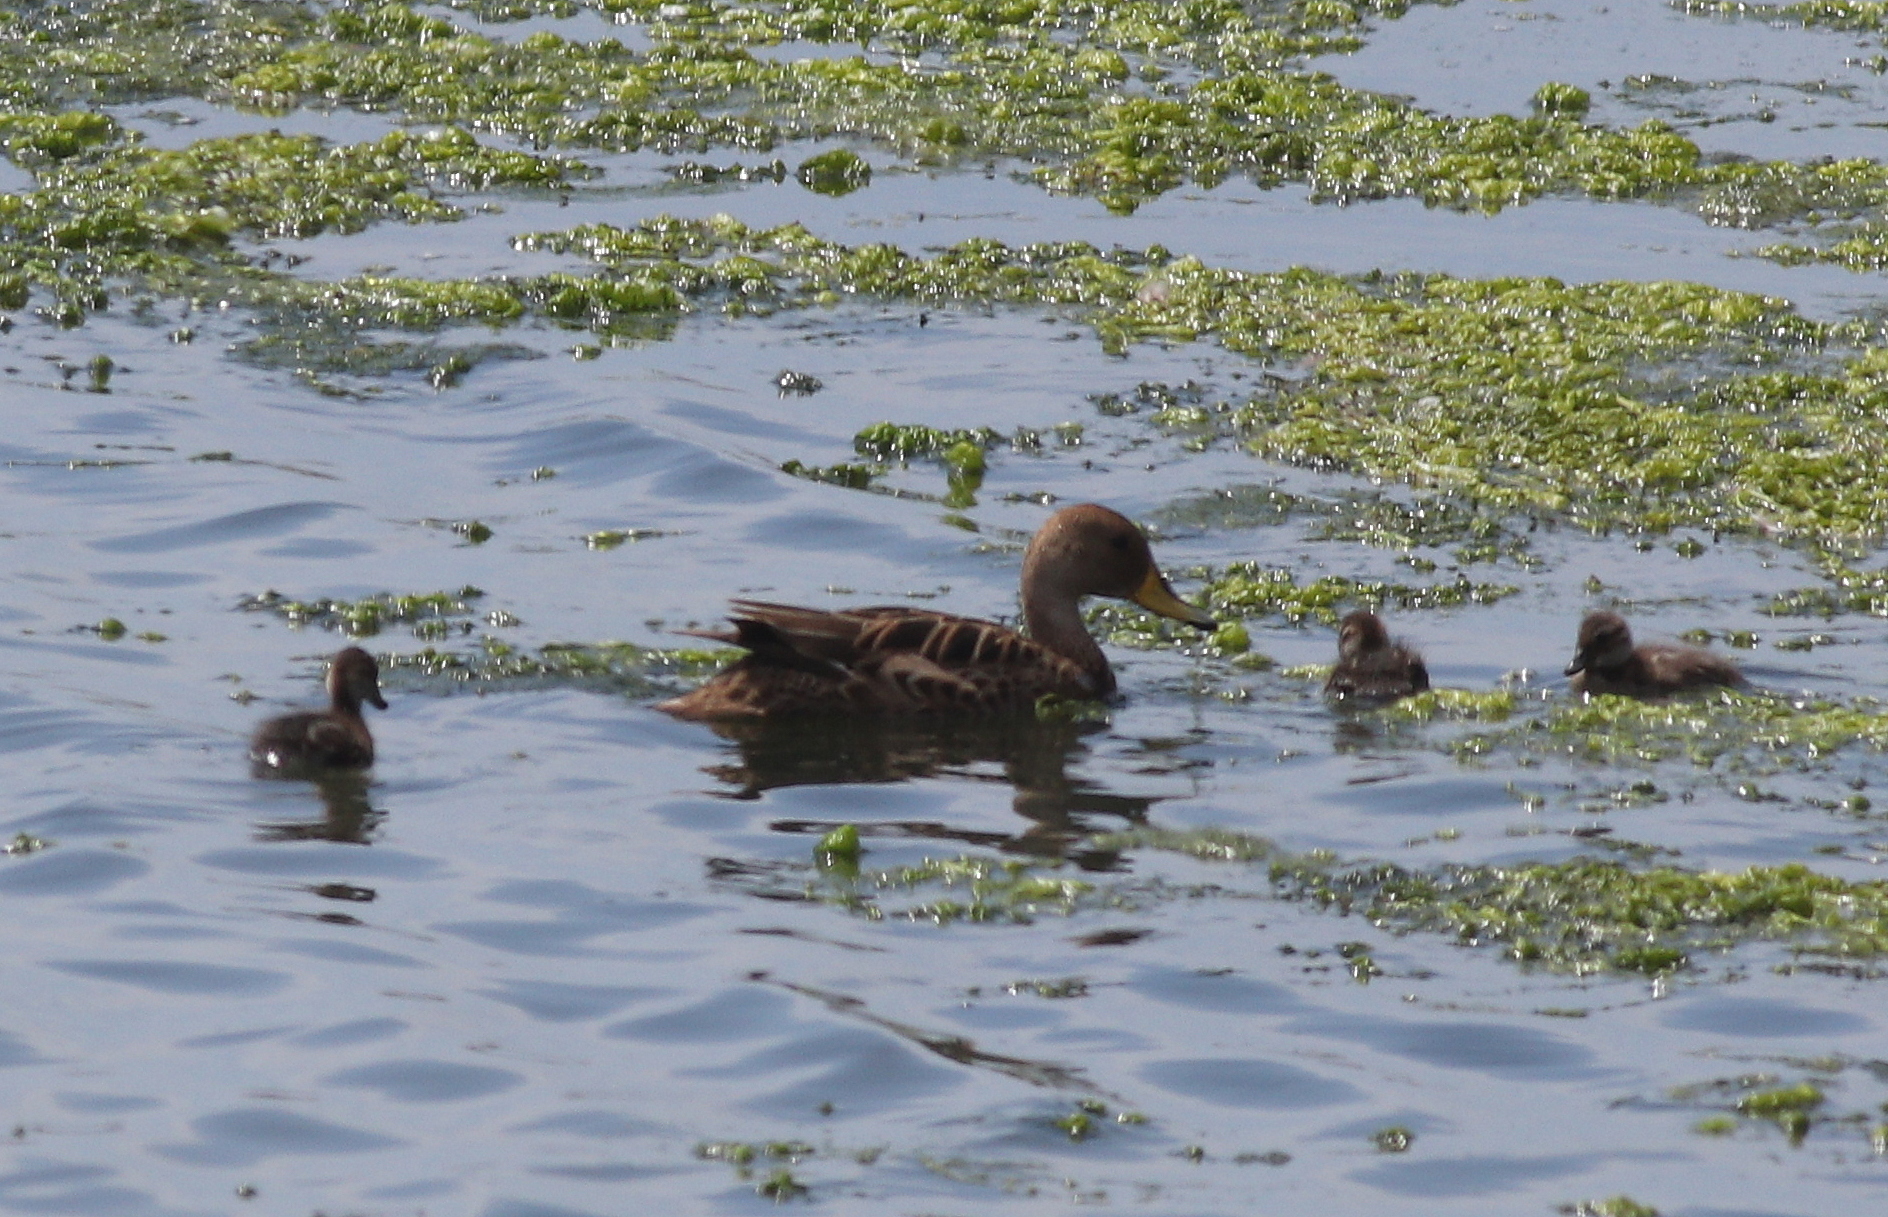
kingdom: Animalia
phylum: Chordata
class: Aves
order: Anseriformes
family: Anatidae
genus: Anas
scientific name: Anas georgica
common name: Yellow-billed pintail
